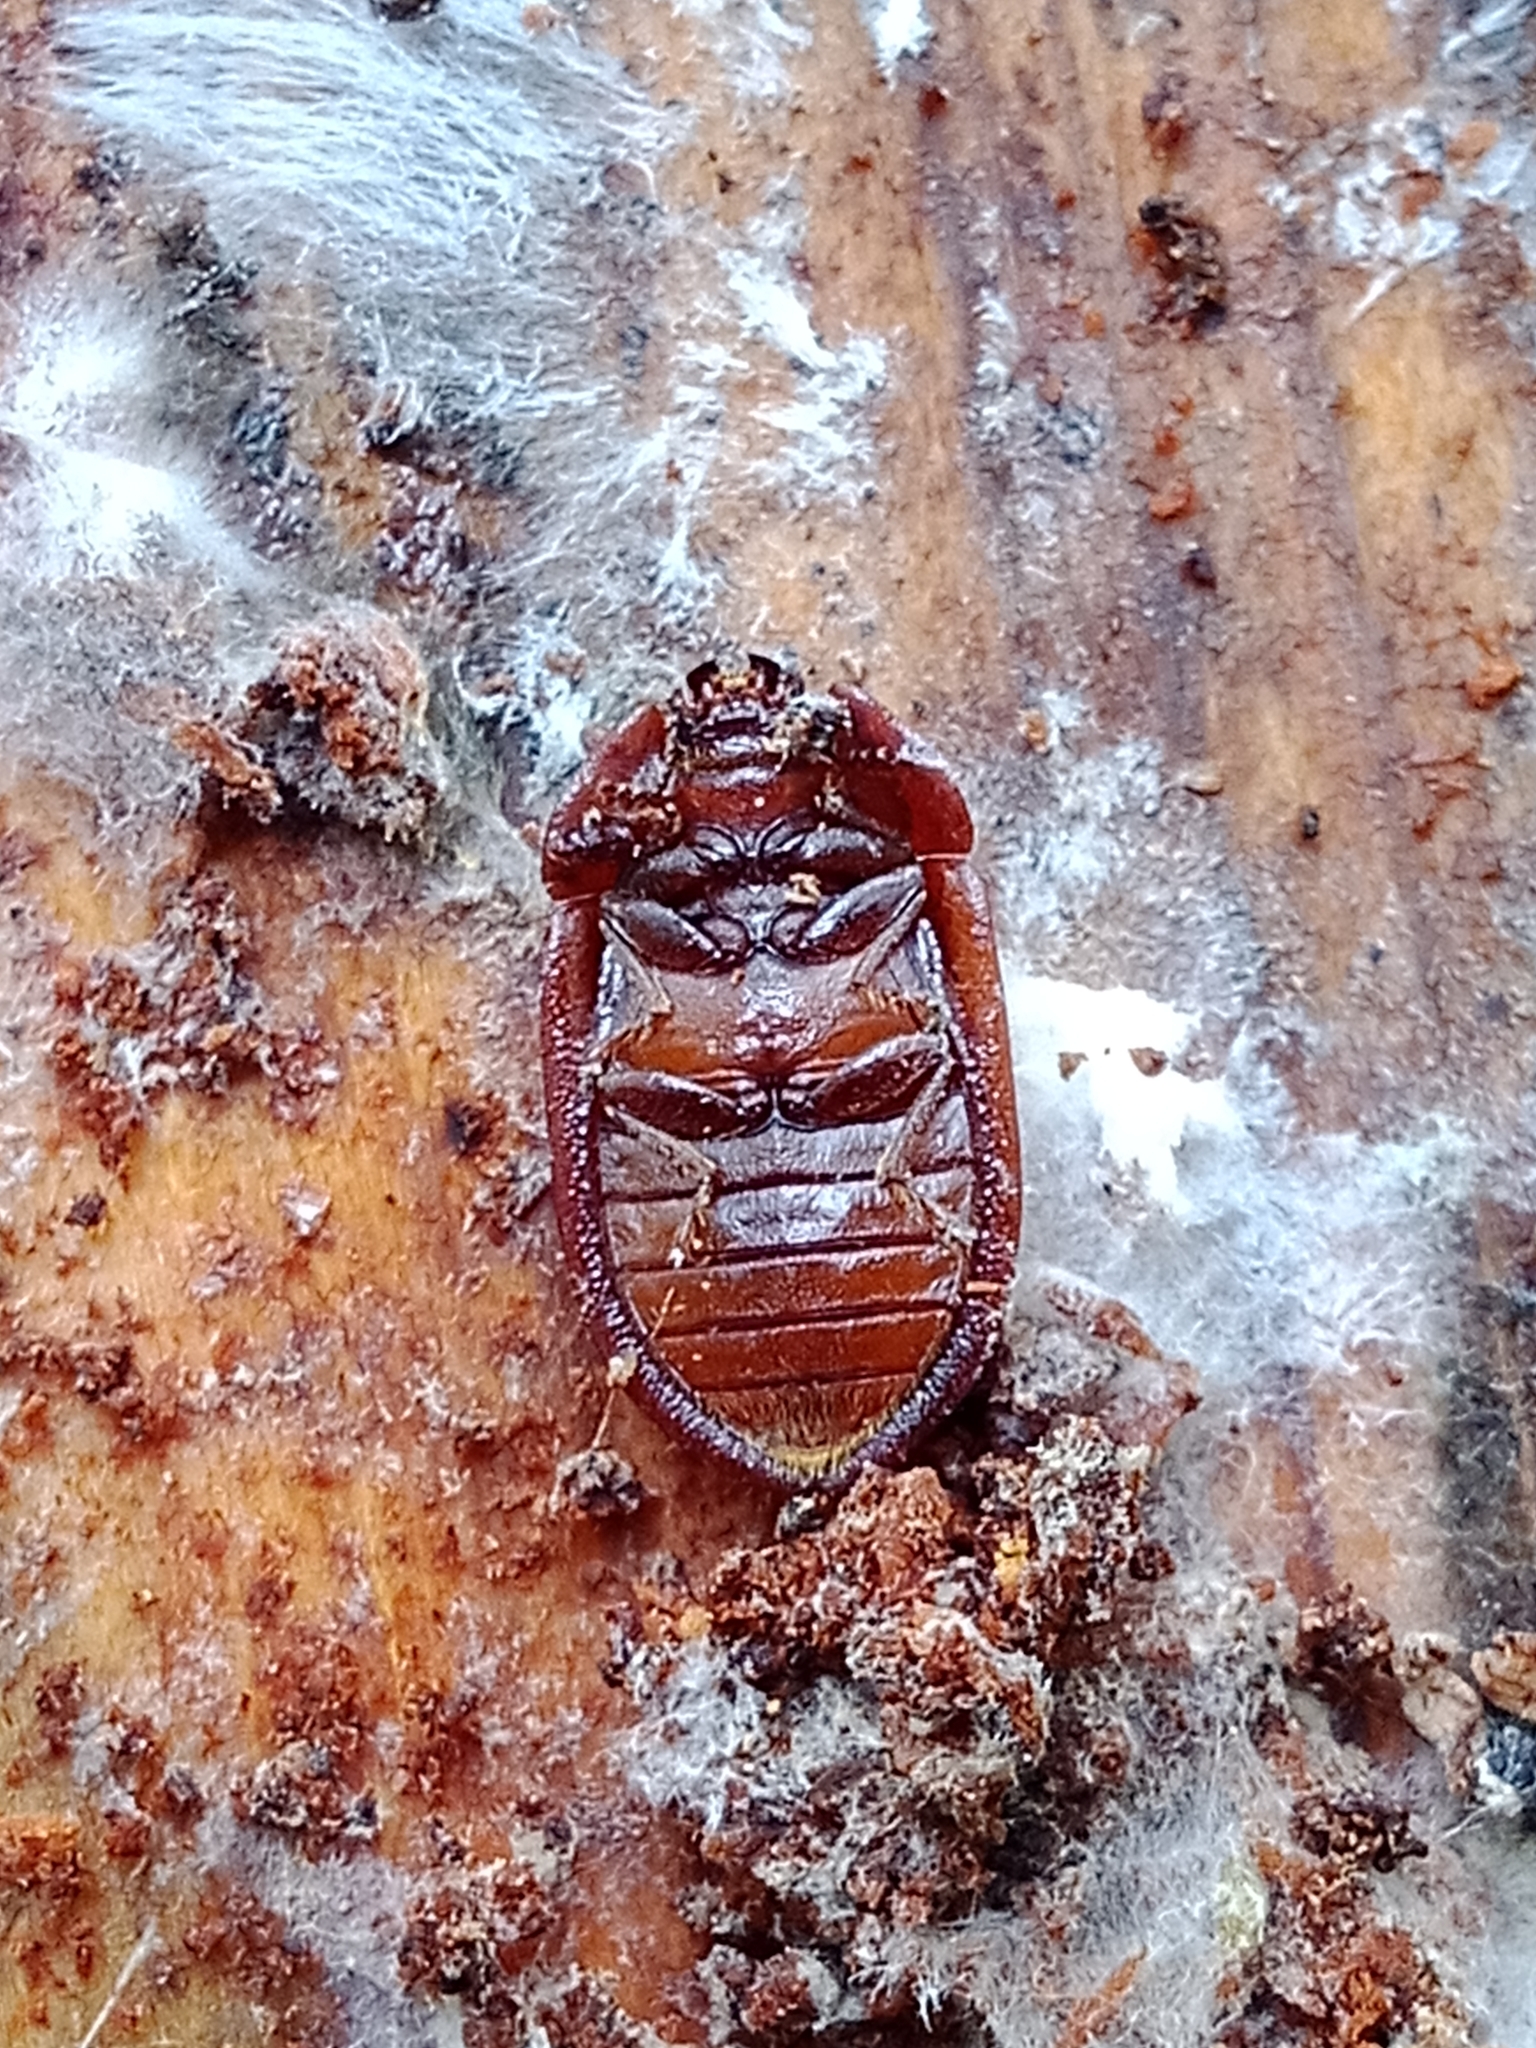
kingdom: Animalia
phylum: Arthropoda
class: Insecta
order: Coleoptera
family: Trogossitidae
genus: Peltis
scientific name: Peltis ferruginea
